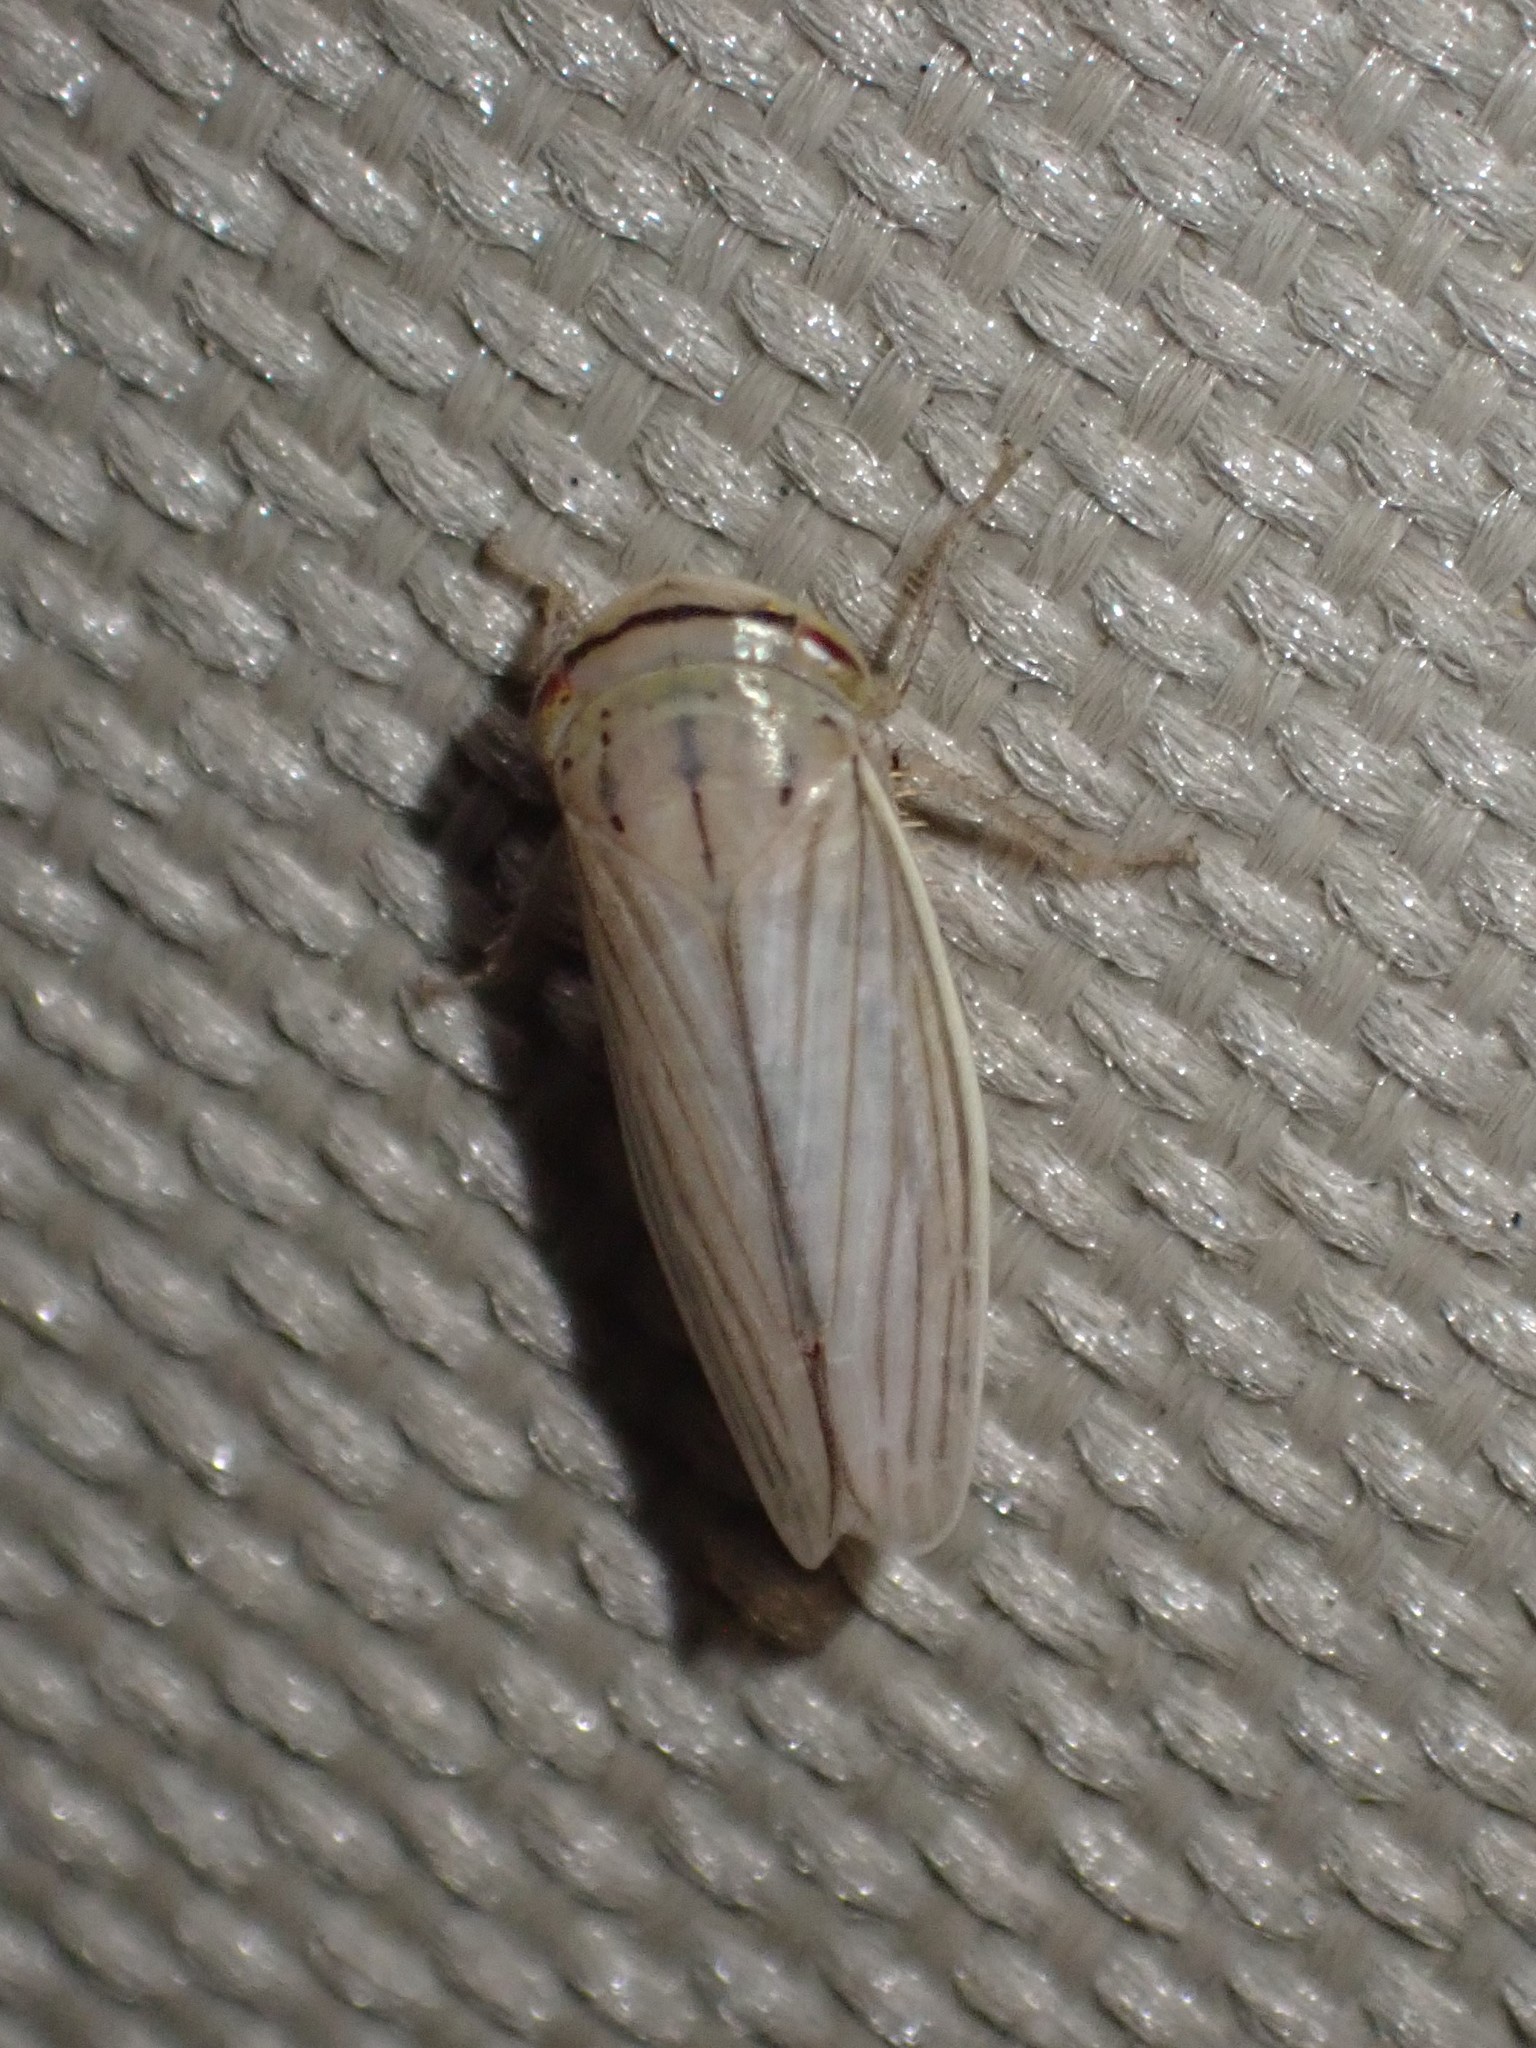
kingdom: Animalia
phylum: Arthropoda
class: Insecta
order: Hemiptera
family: Cicadellidae
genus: Athysanus
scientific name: Athysanus argentarius
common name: Silver leafhopper
